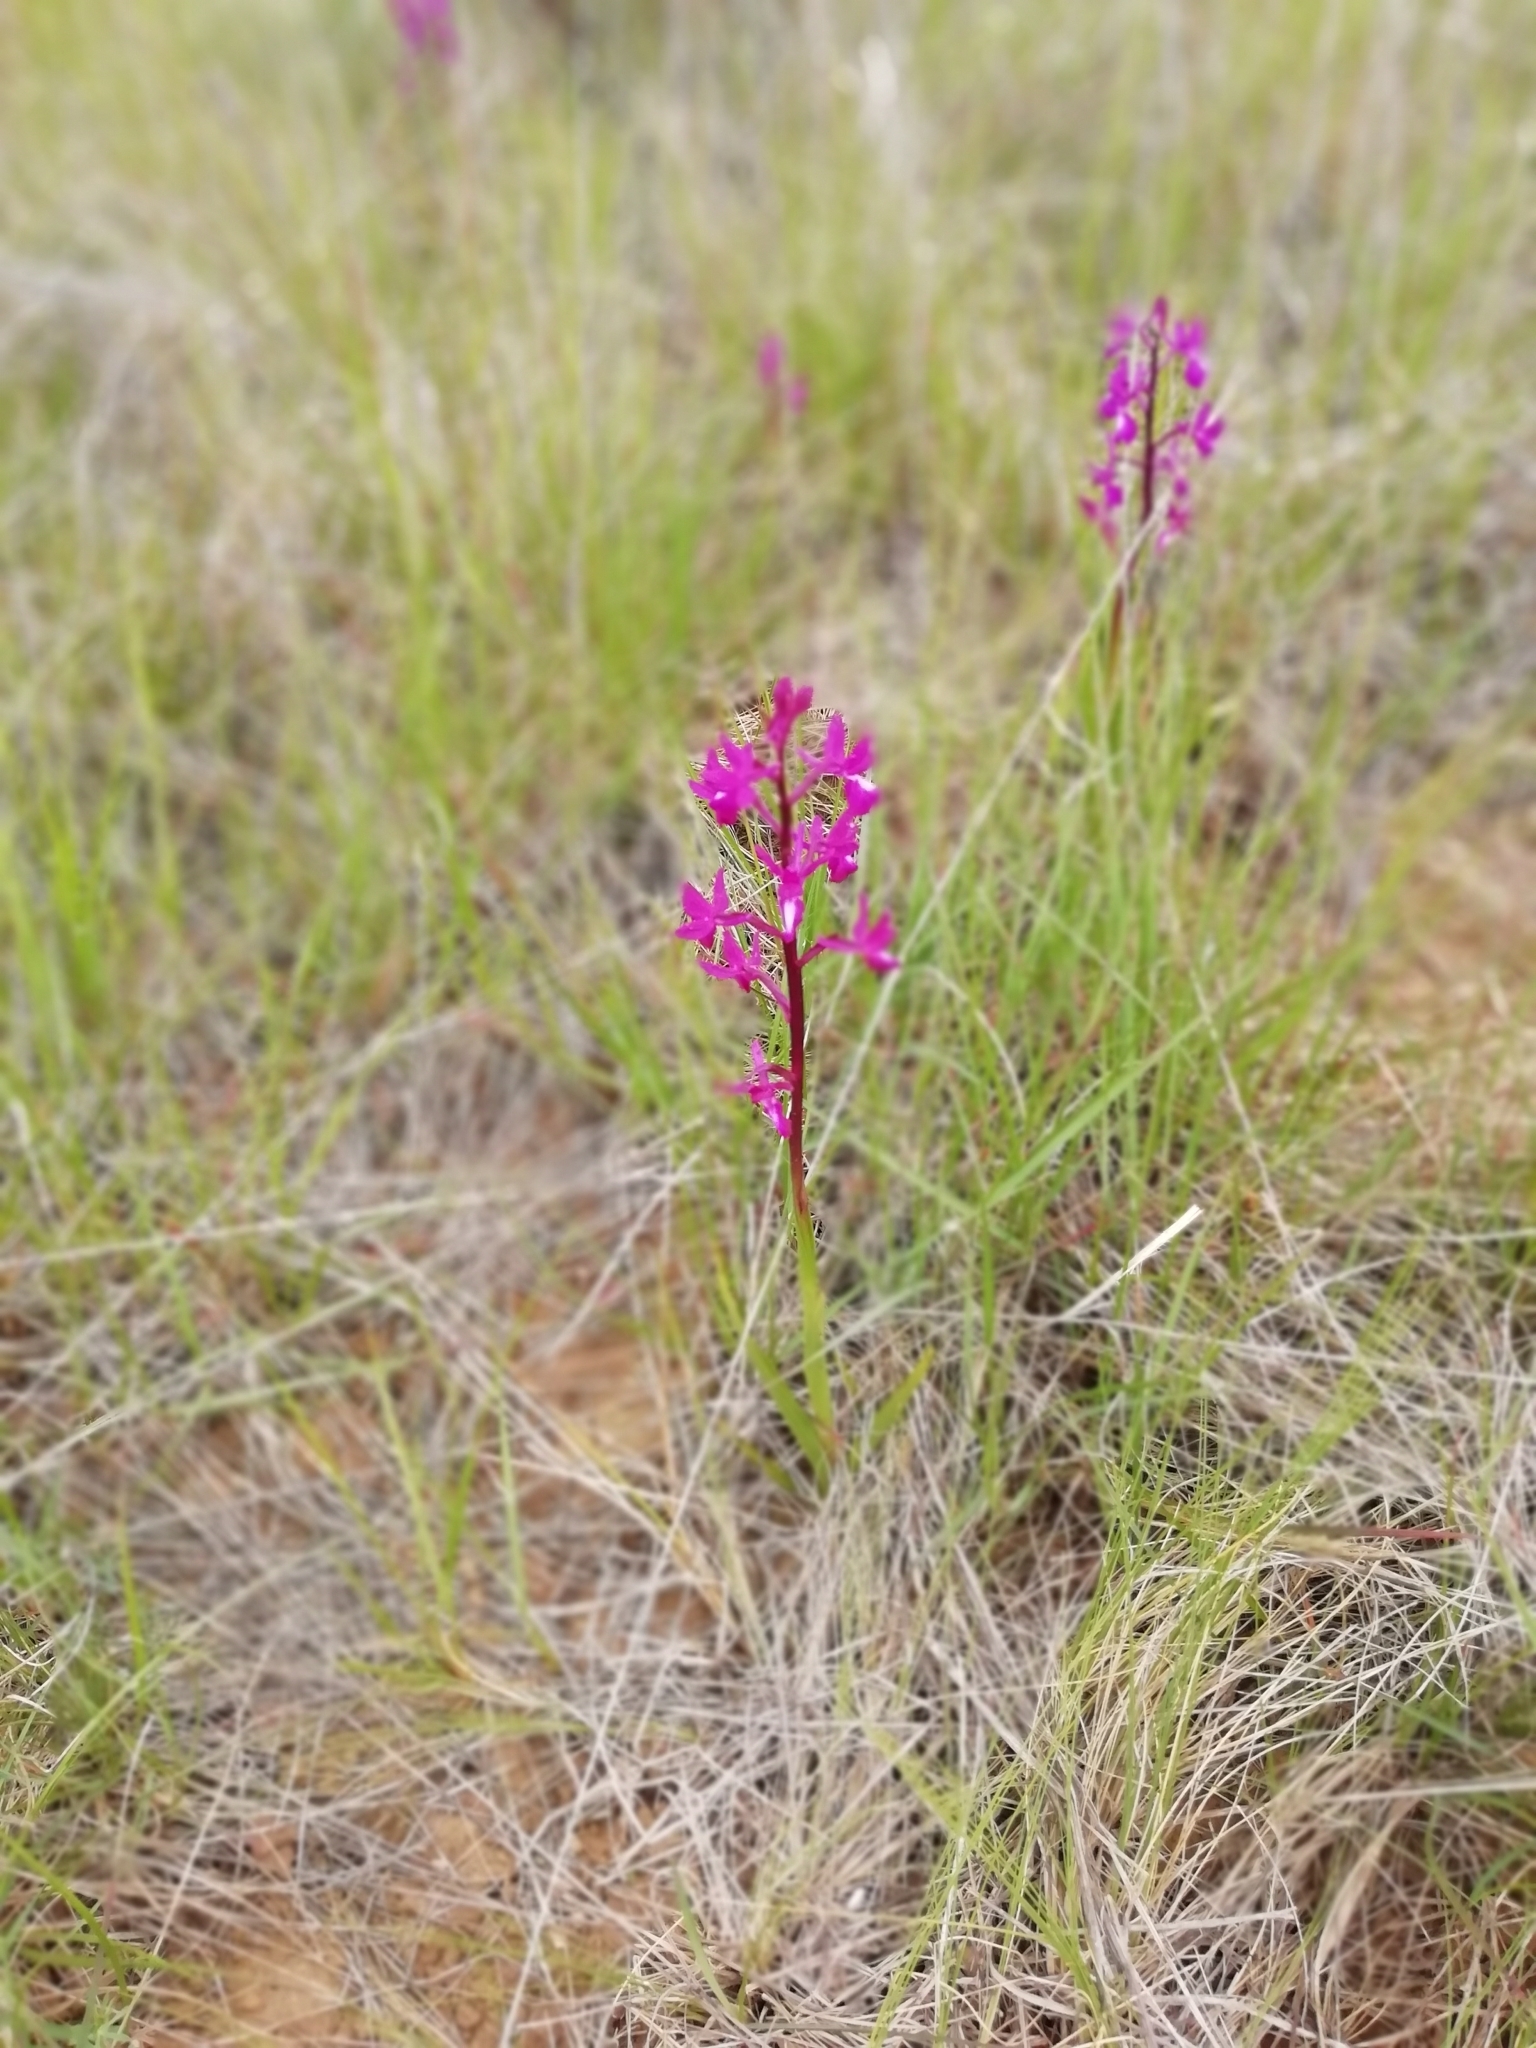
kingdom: Plantae
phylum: Tracheophyta
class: Liliopsida
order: Asparagales
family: Orchidaceae
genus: Anacamptis
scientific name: Anacamptis laxiflora
